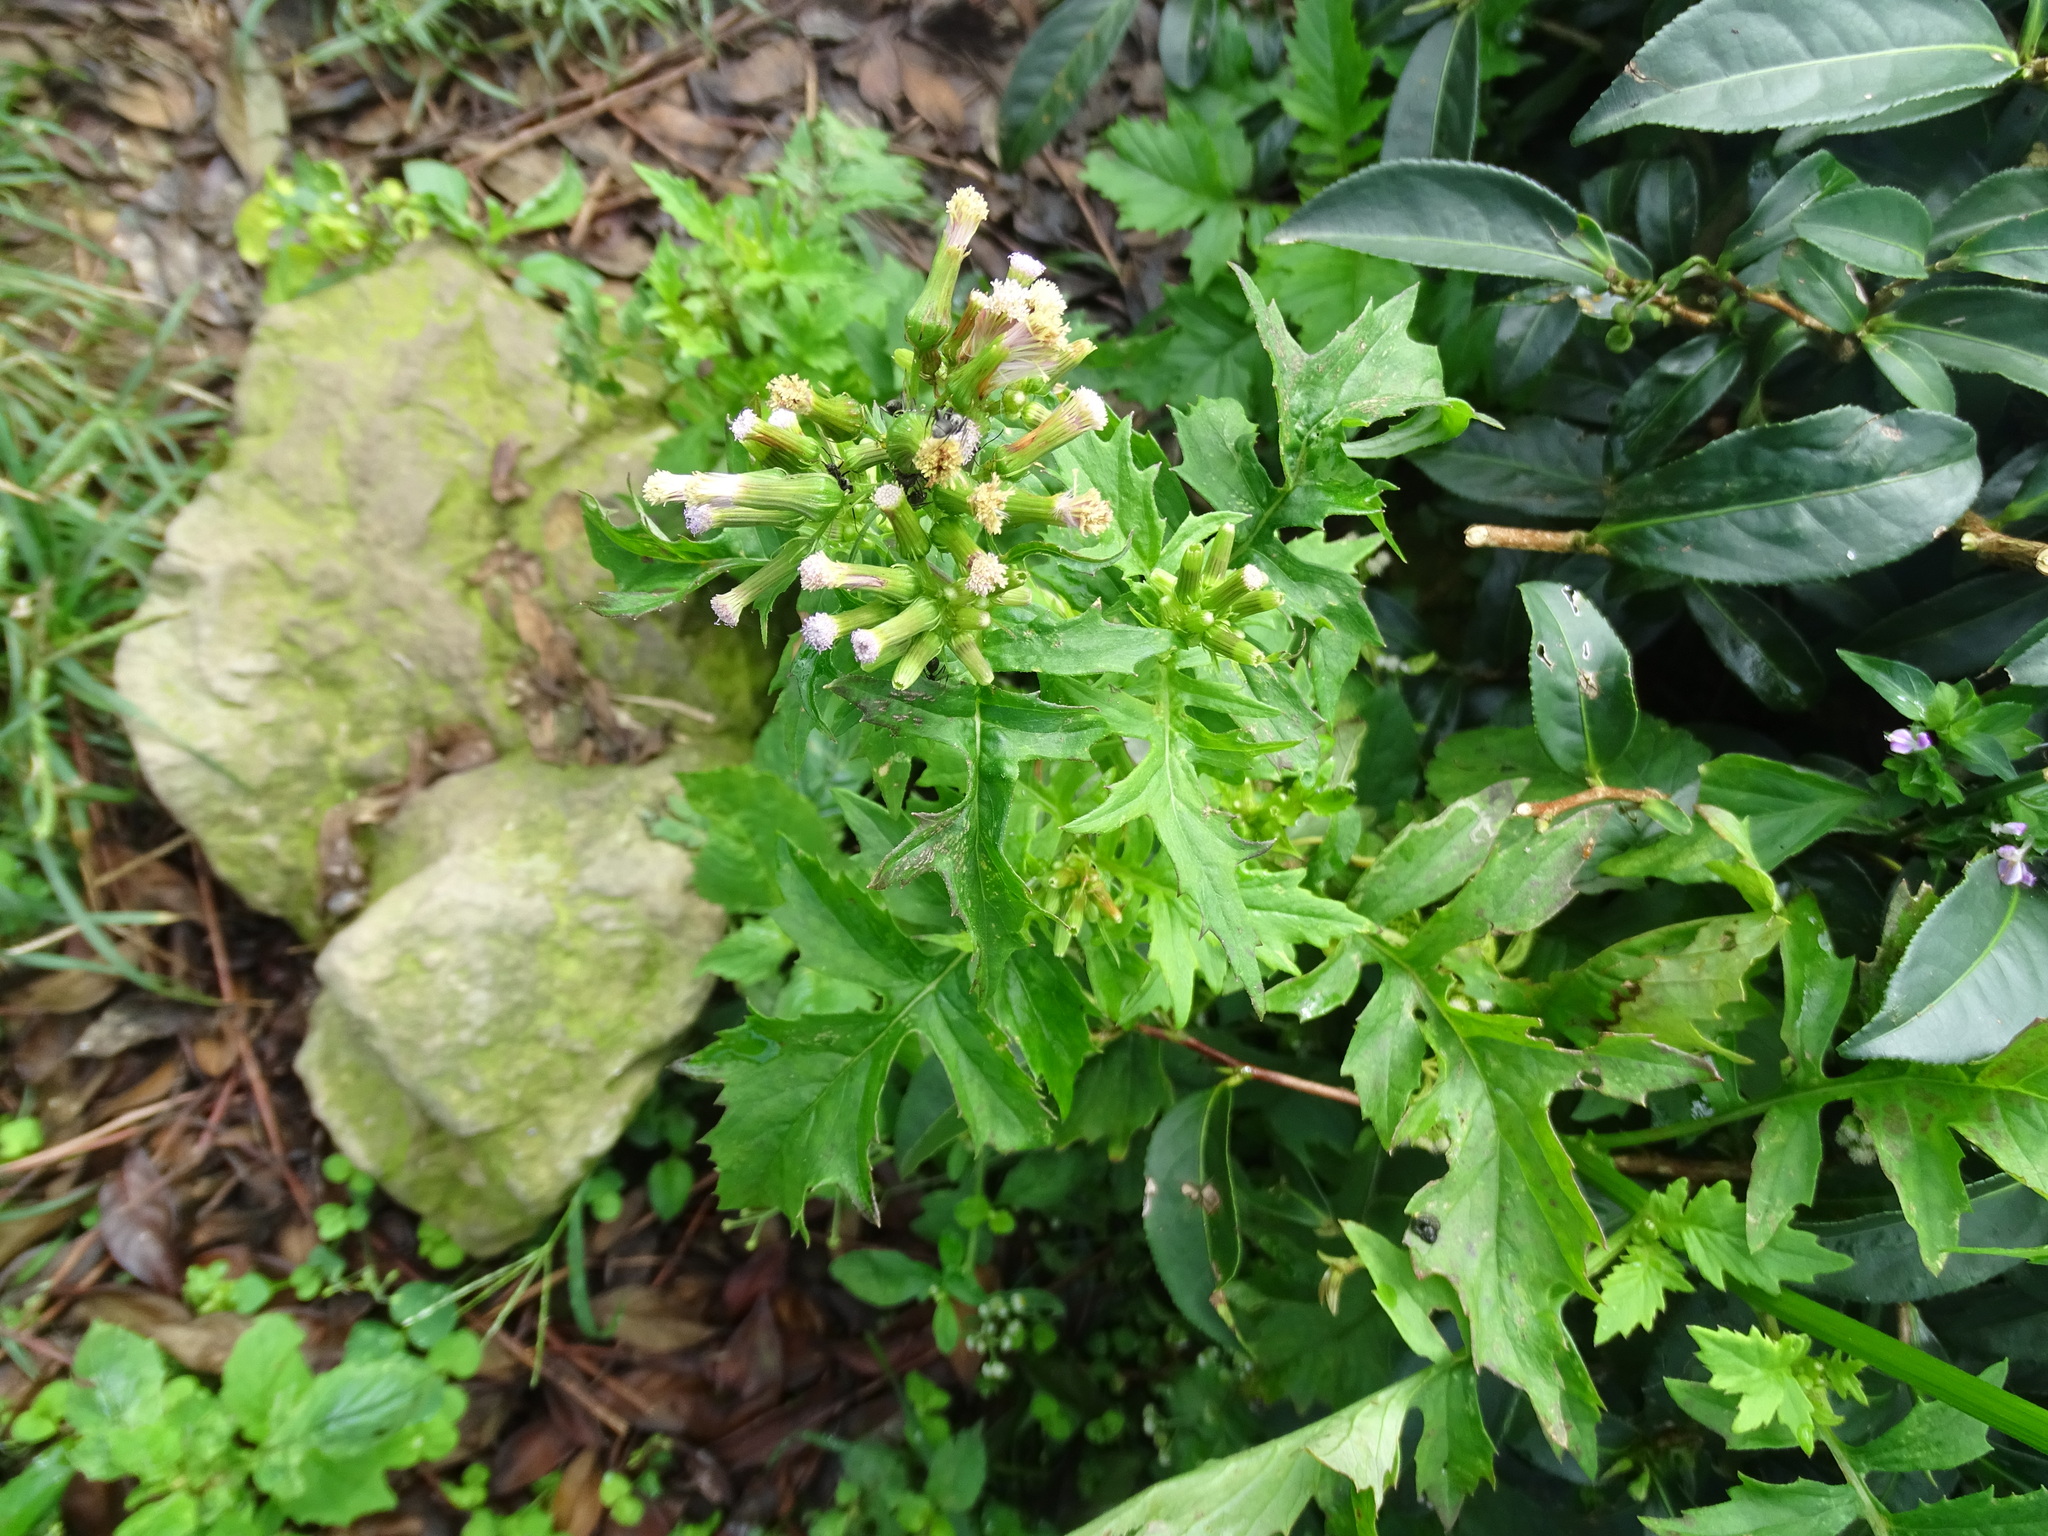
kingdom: Plantae
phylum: Tracheophyta
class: Magnoliopsida
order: Asterales
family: Asteraceae
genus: Erechtites
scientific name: Erechtites valerianifolius
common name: Tropical burnweed
